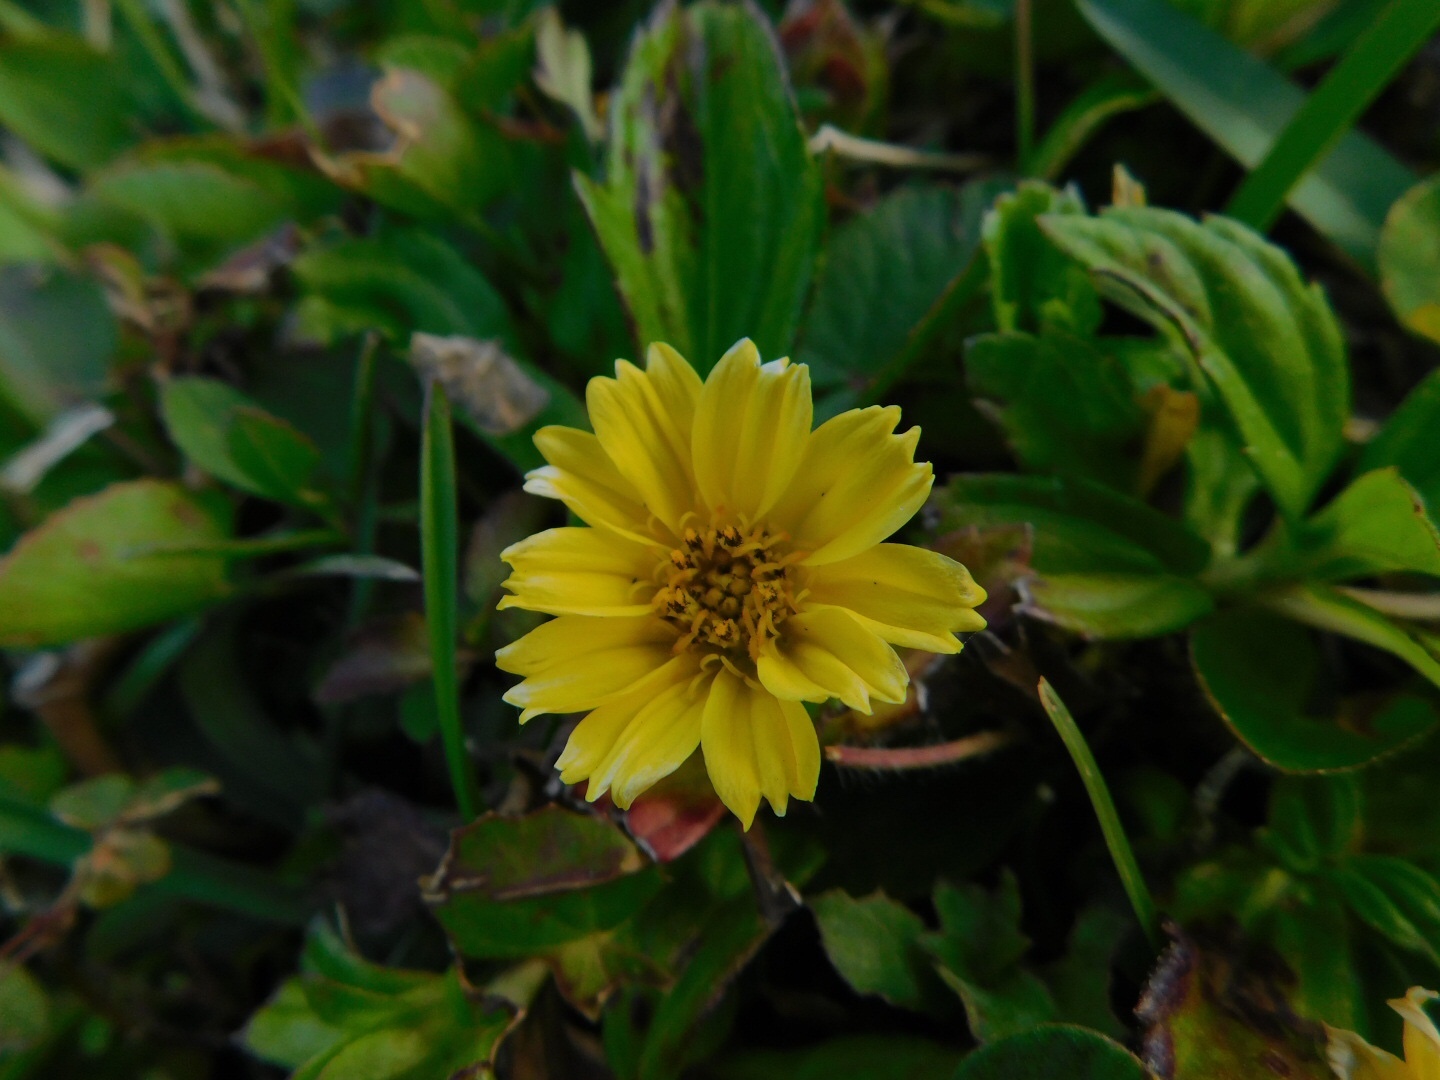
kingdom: Plantae
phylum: Tracheophyta
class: Magnoliopsida
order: Asterales
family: Asteraceae
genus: Sphagneticola
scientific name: Sphagneticola trilobata
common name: Bay biscayne creeping-oxeye
